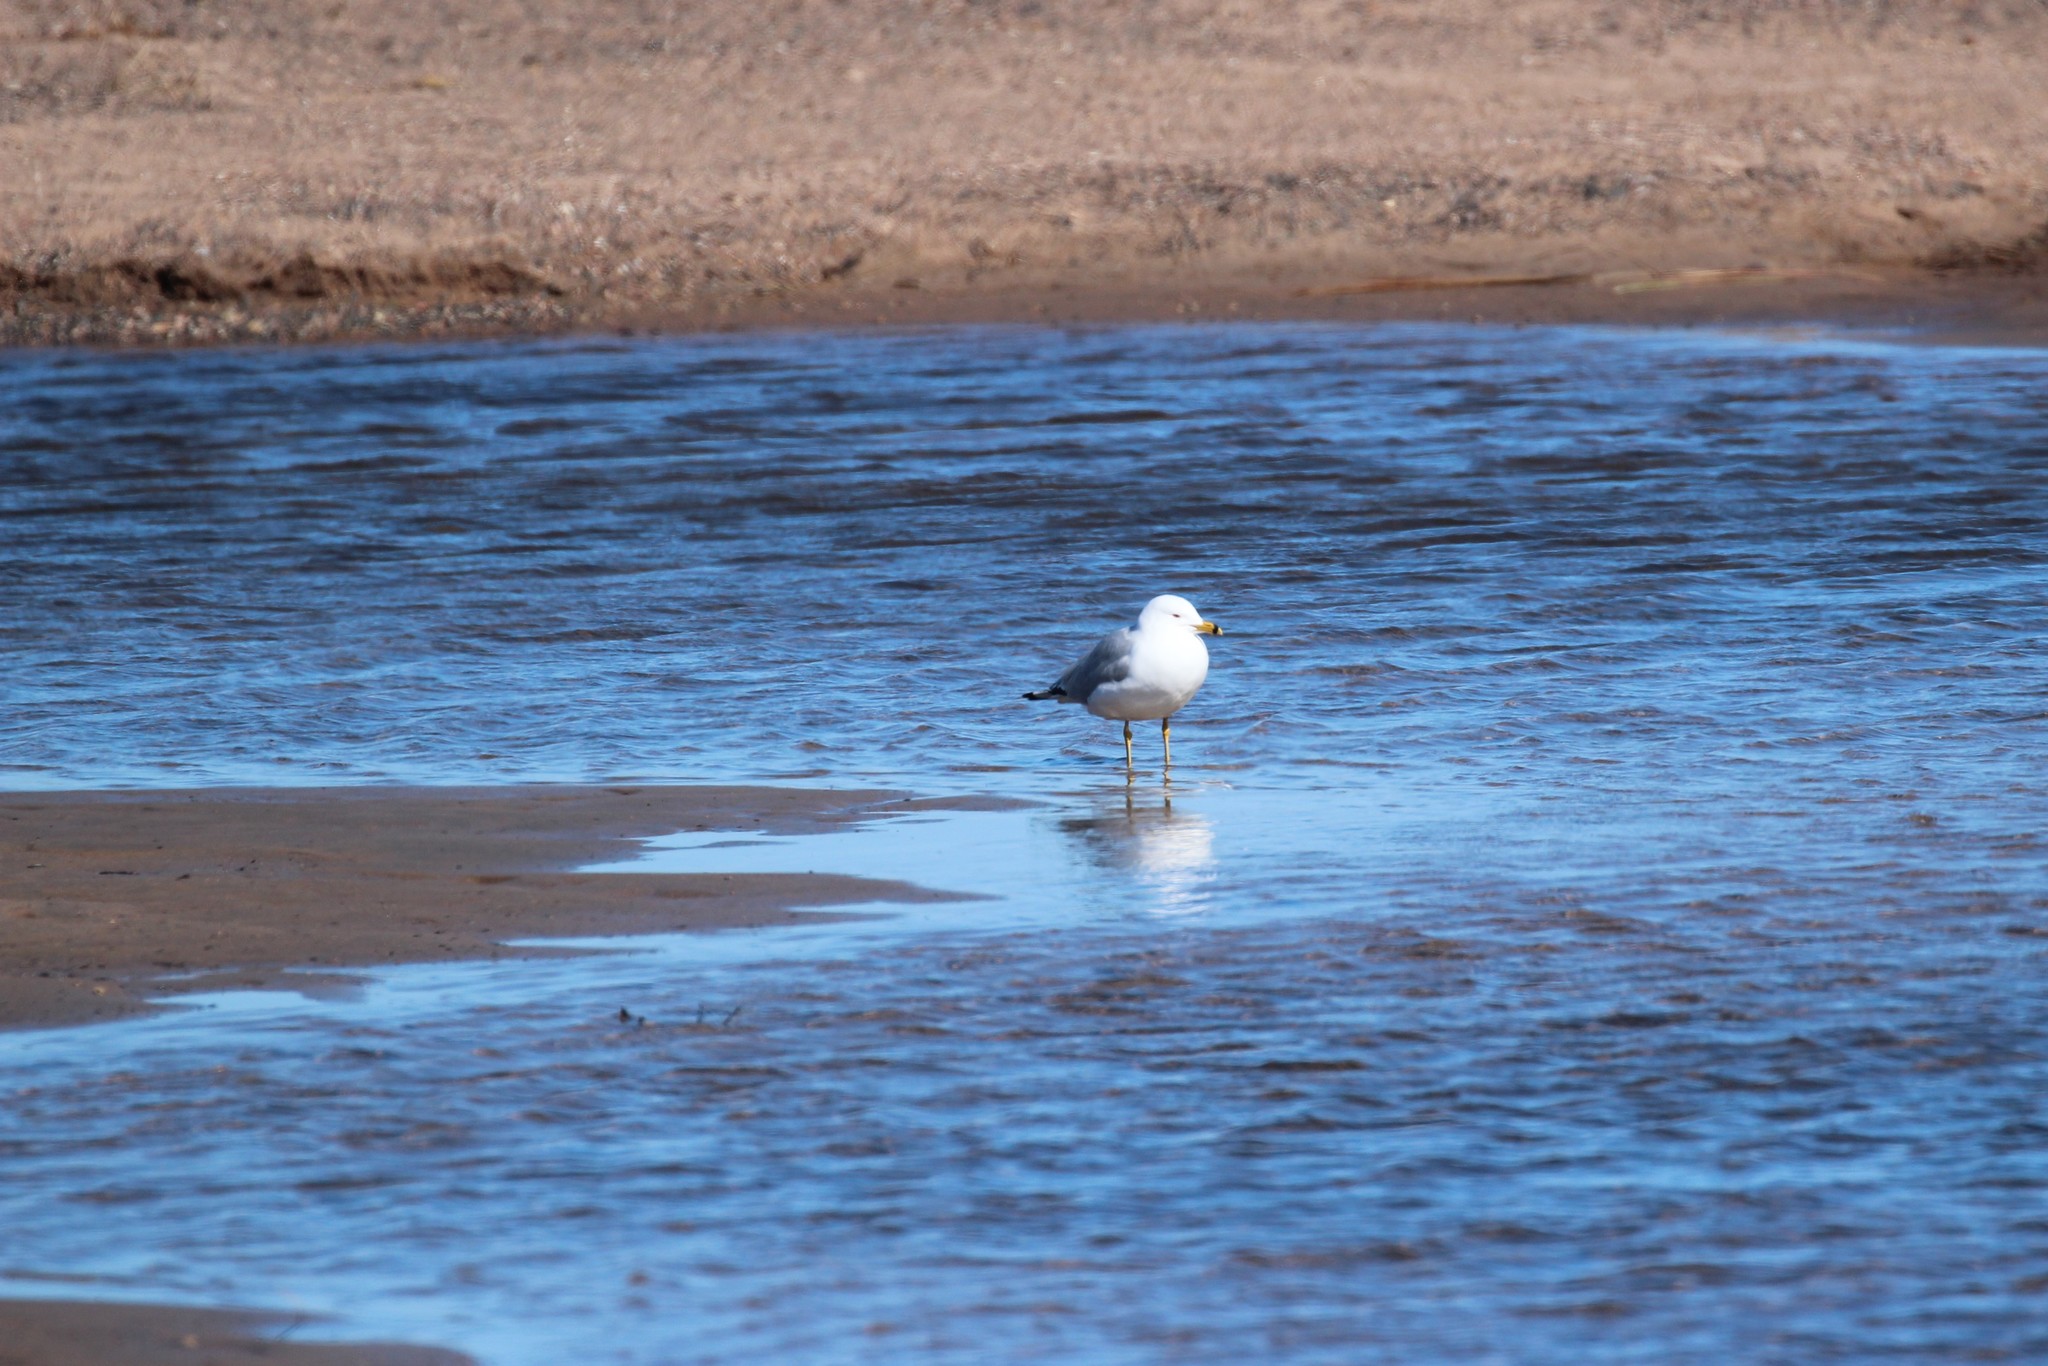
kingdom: Animalia
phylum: Chordata
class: Aves
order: Charadriiformes
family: Laridae
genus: Larus
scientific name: Larus delawarensis
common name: Ring-billed gull
